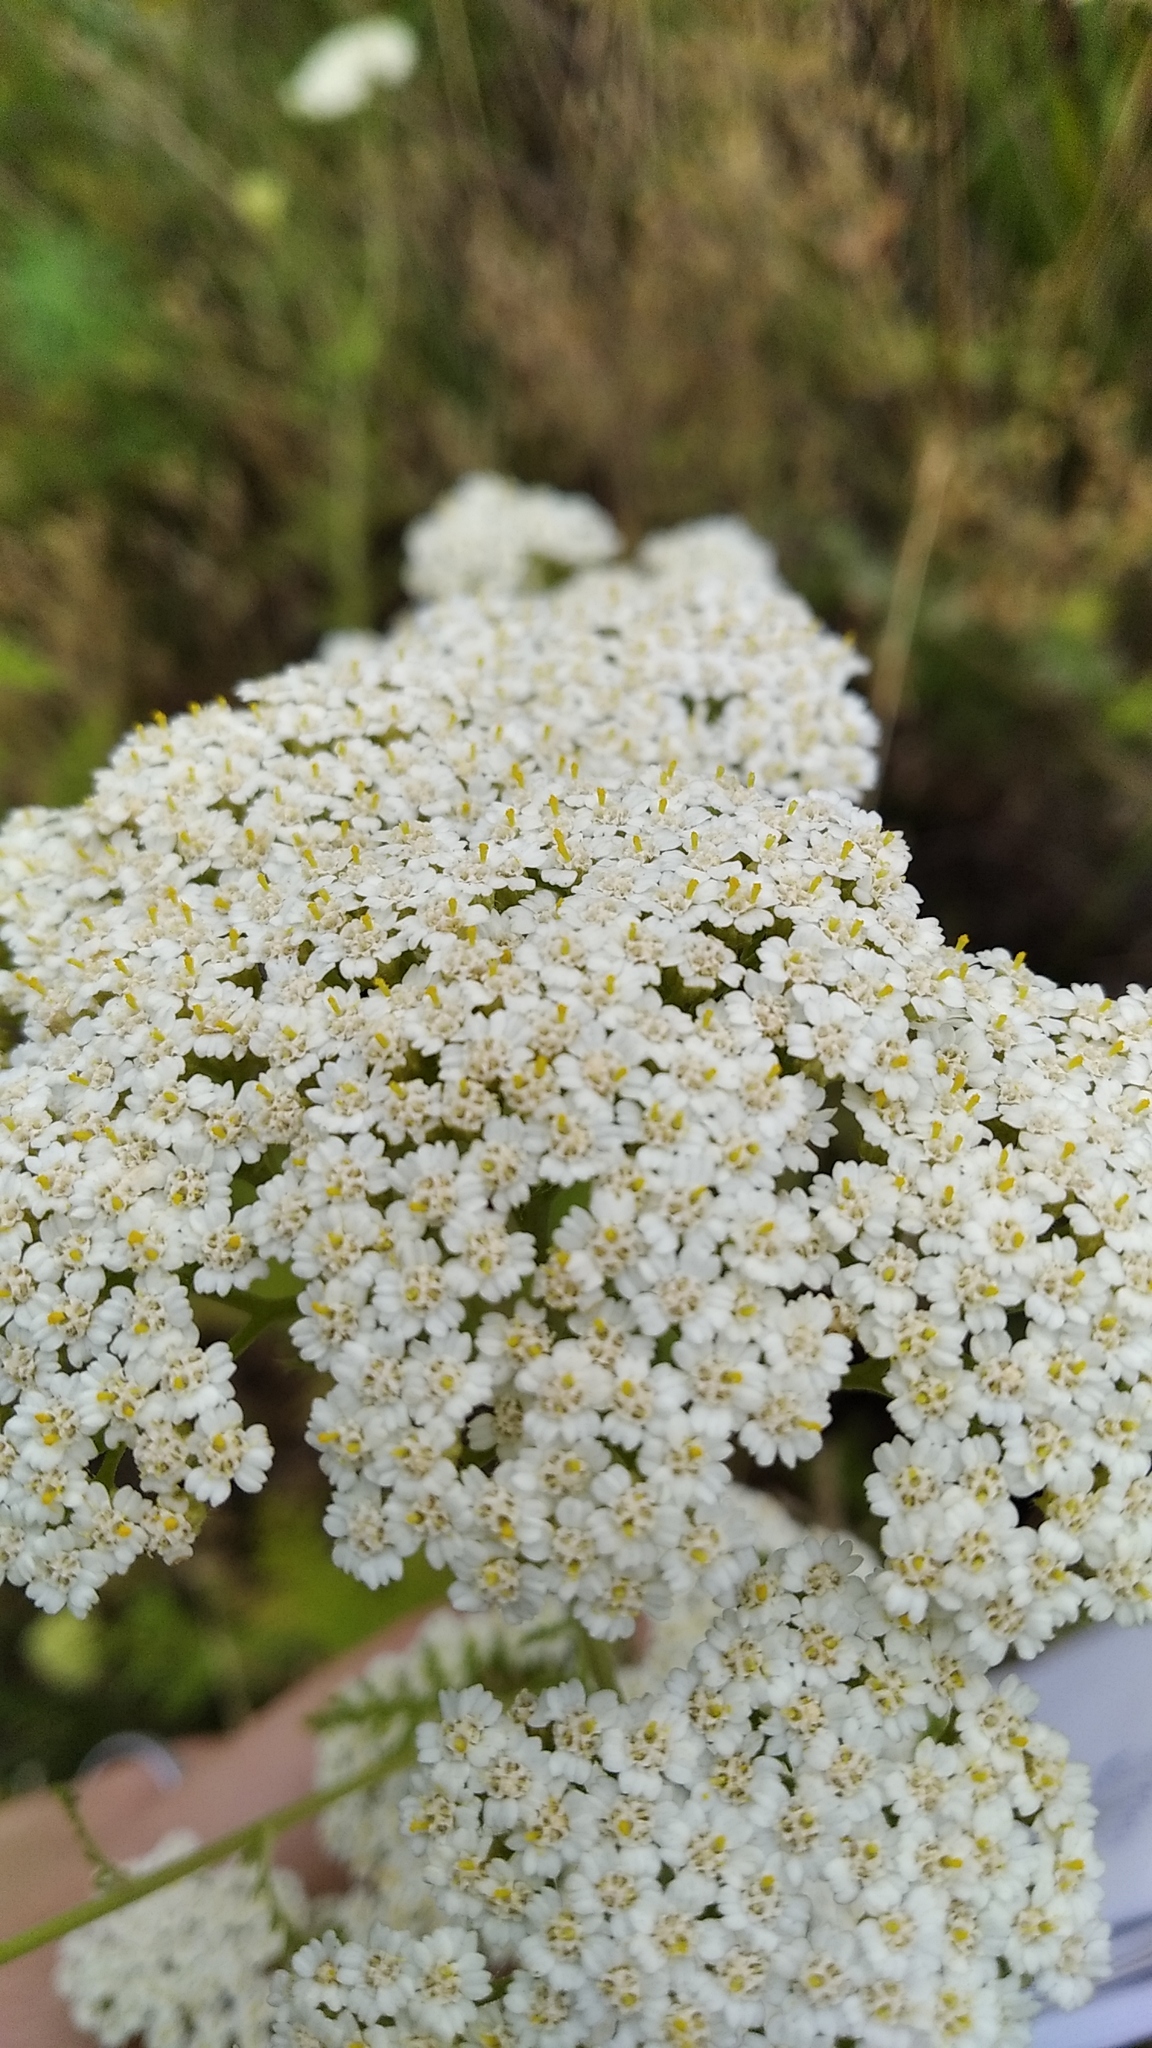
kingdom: Plantae
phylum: Tracheophyta
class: Magnoliopsida
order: Asterales
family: Asteraceae
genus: Achillea
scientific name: Achillea nobilis
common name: Noble yarrow
